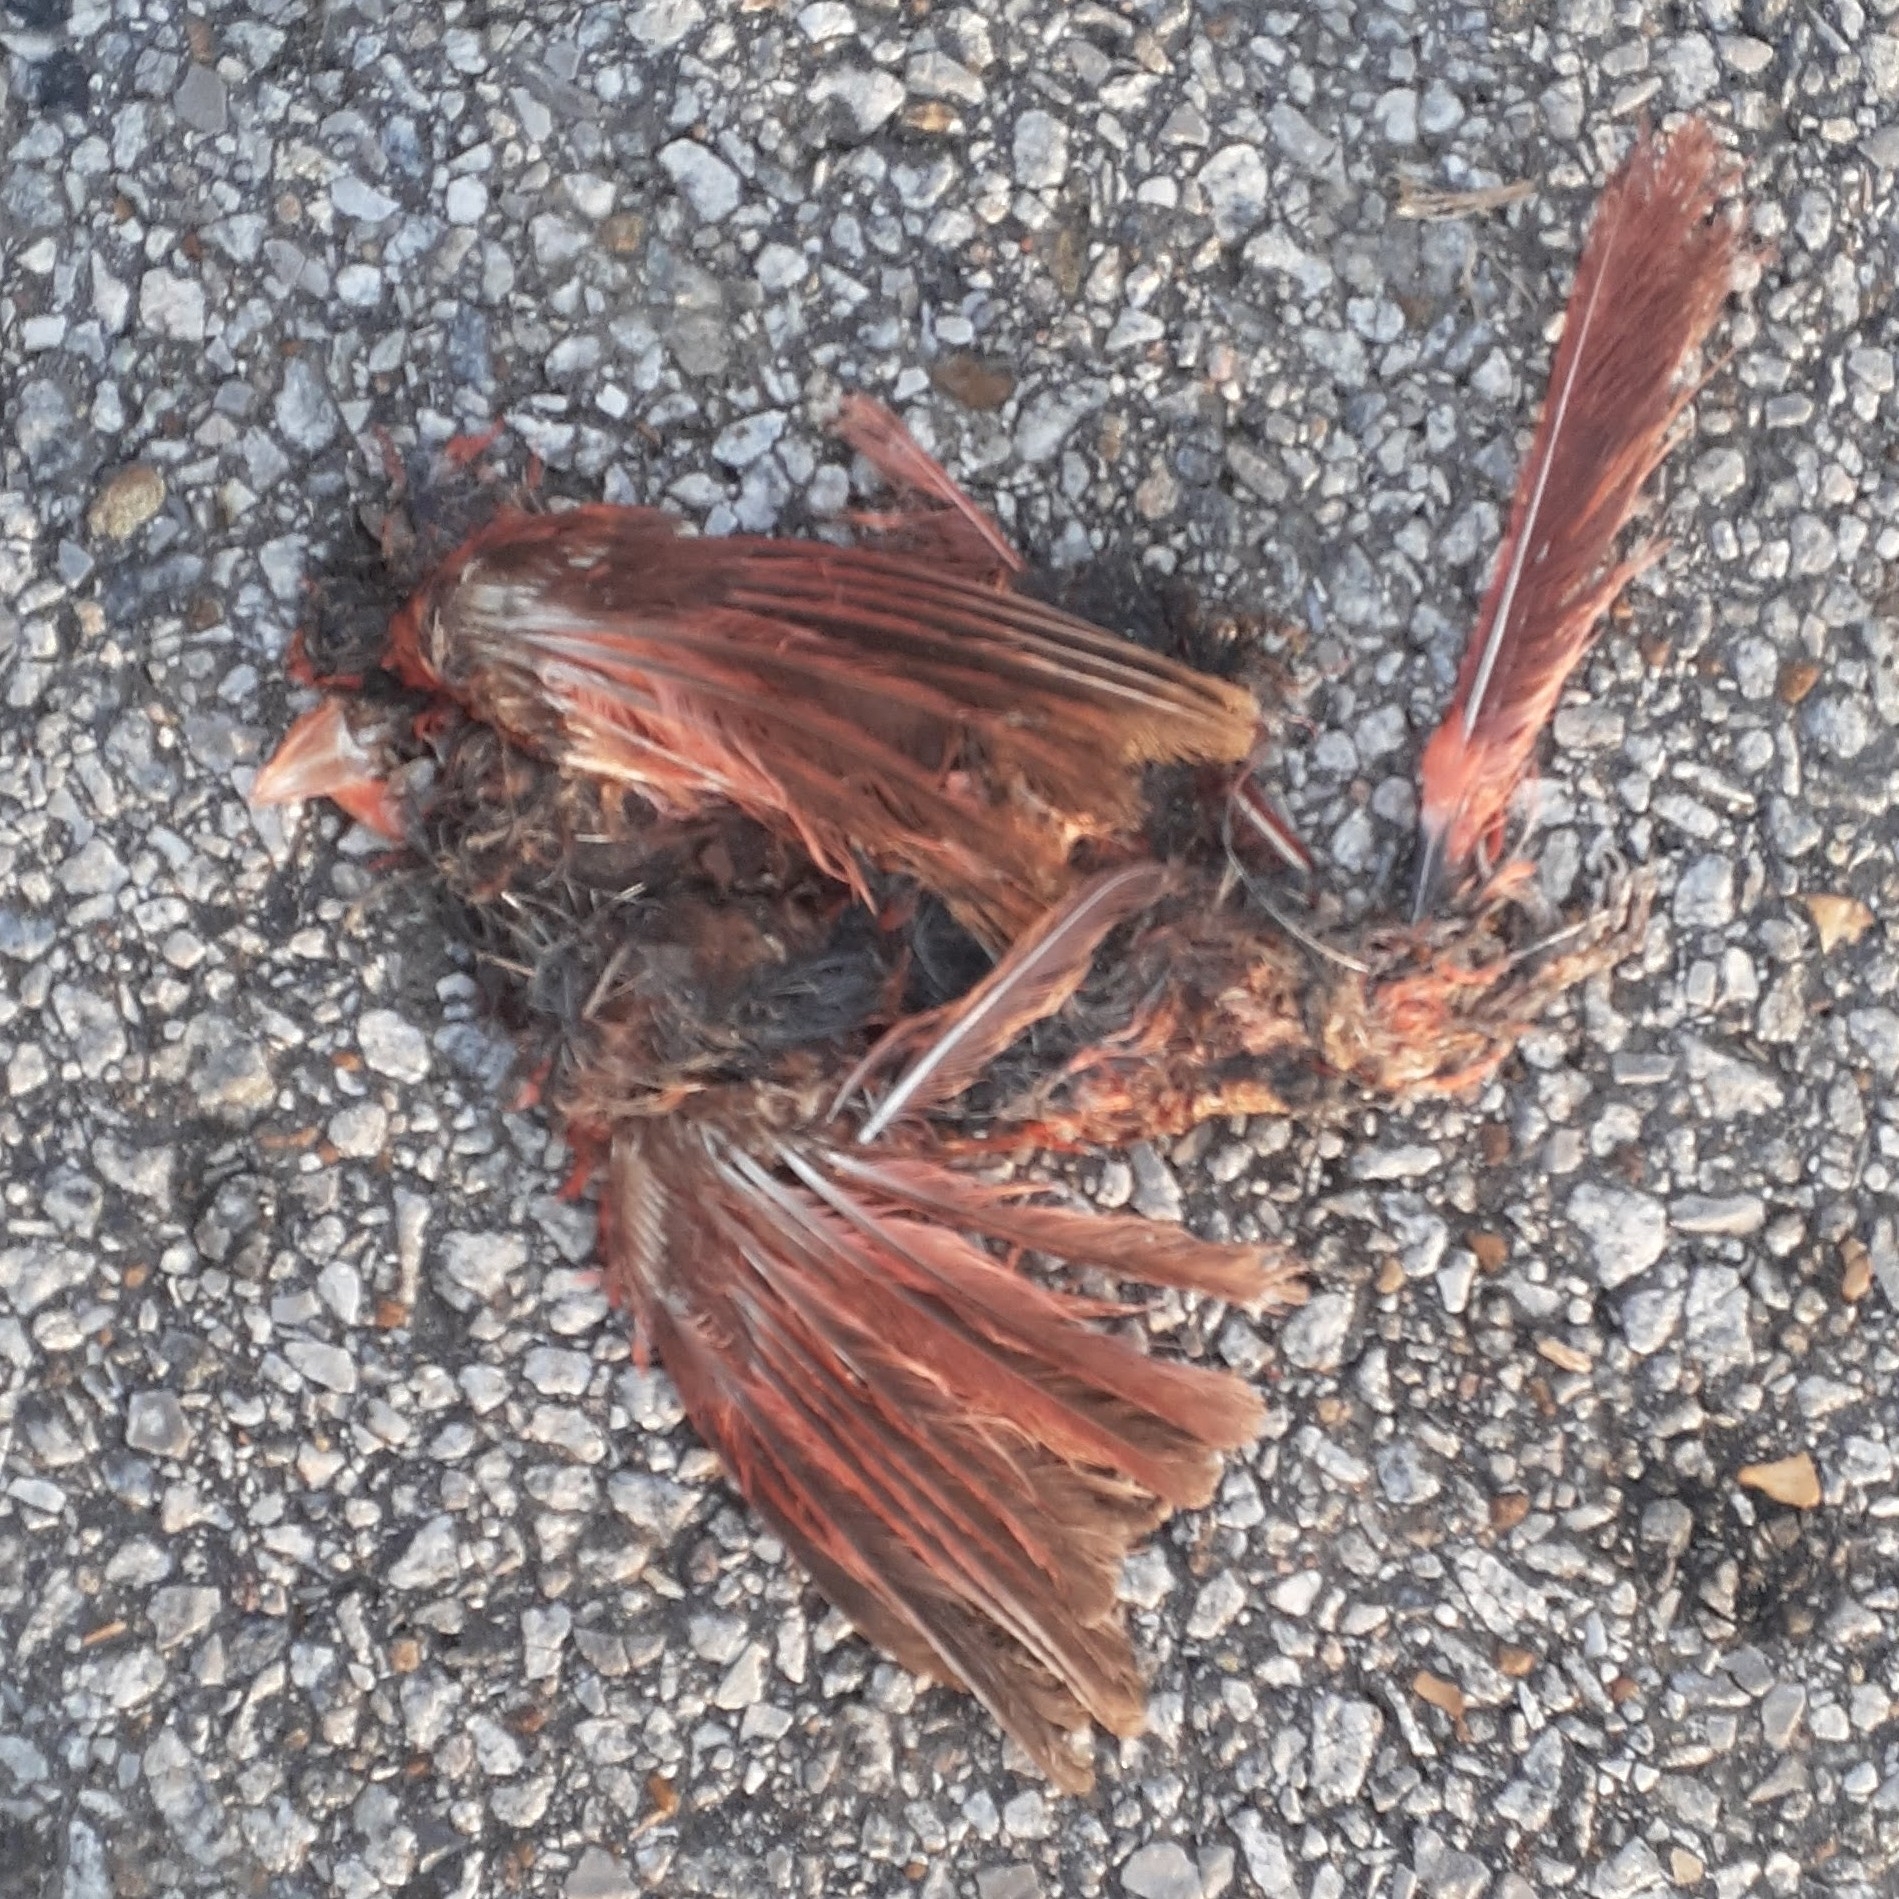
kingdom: Animalia
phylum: Chordata
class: Aves
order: Passeriformes
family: Cardinalidae
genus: Cardinalis
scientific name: Cardinalis cardinalis
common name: Northern cardinal
